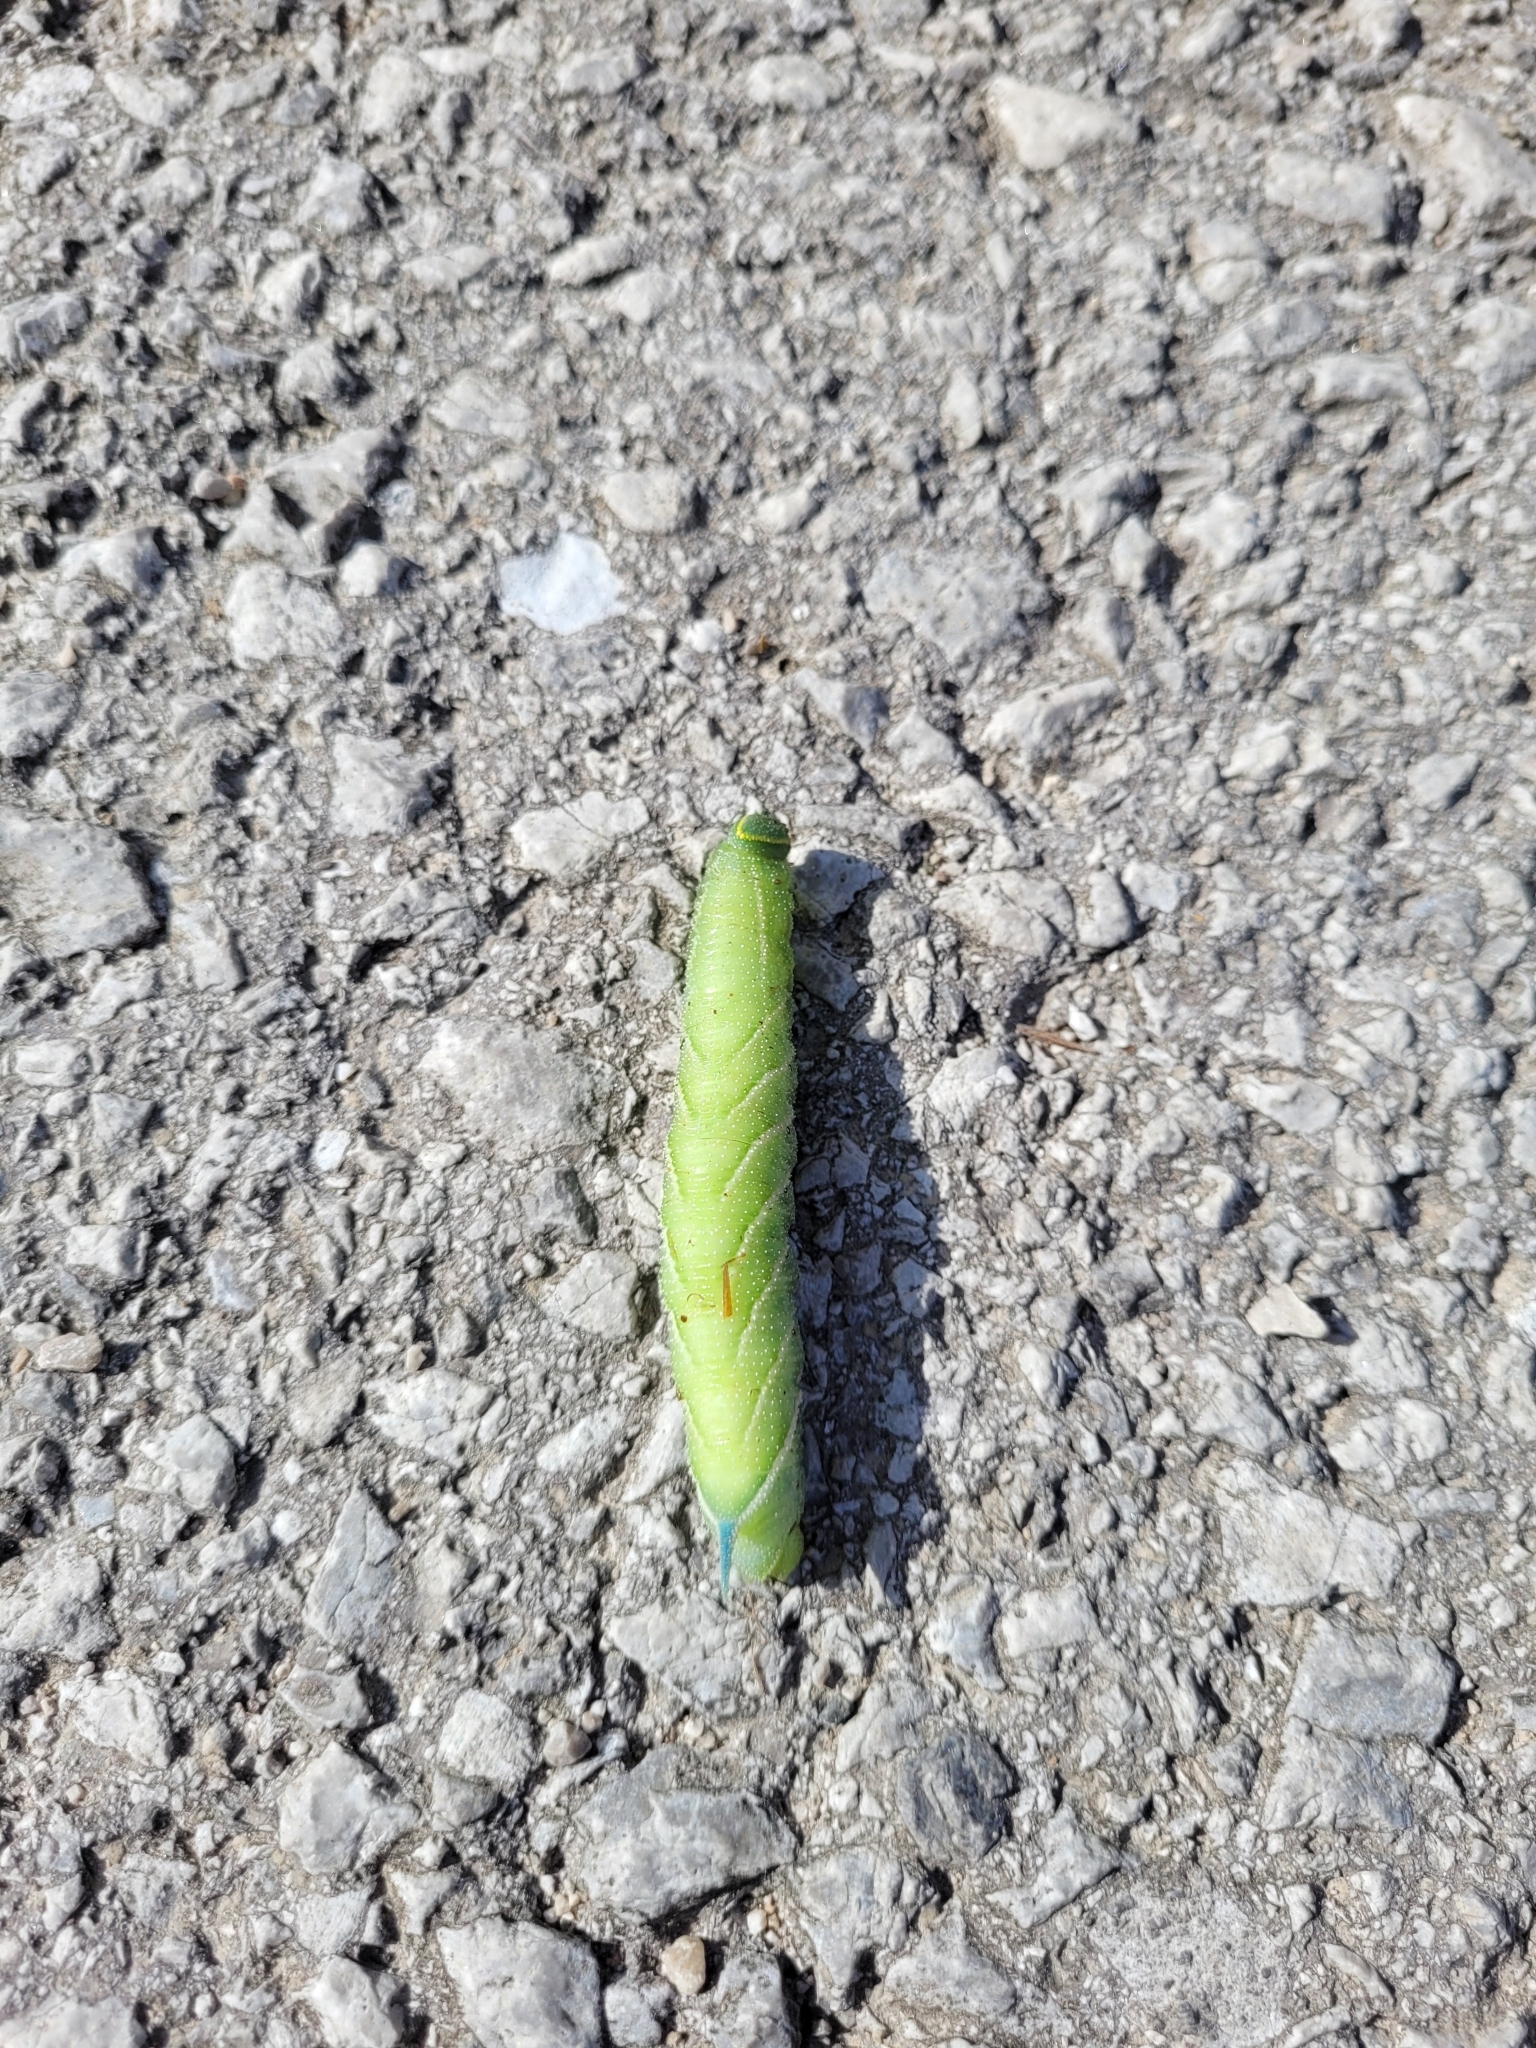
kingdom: Animalia
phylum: Arthropoda
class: Insecta
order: Lepidoptera
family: Sphingidae
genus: Smerinthus
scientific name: Smerinthus ocellata
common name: Eyed hawk-moth
